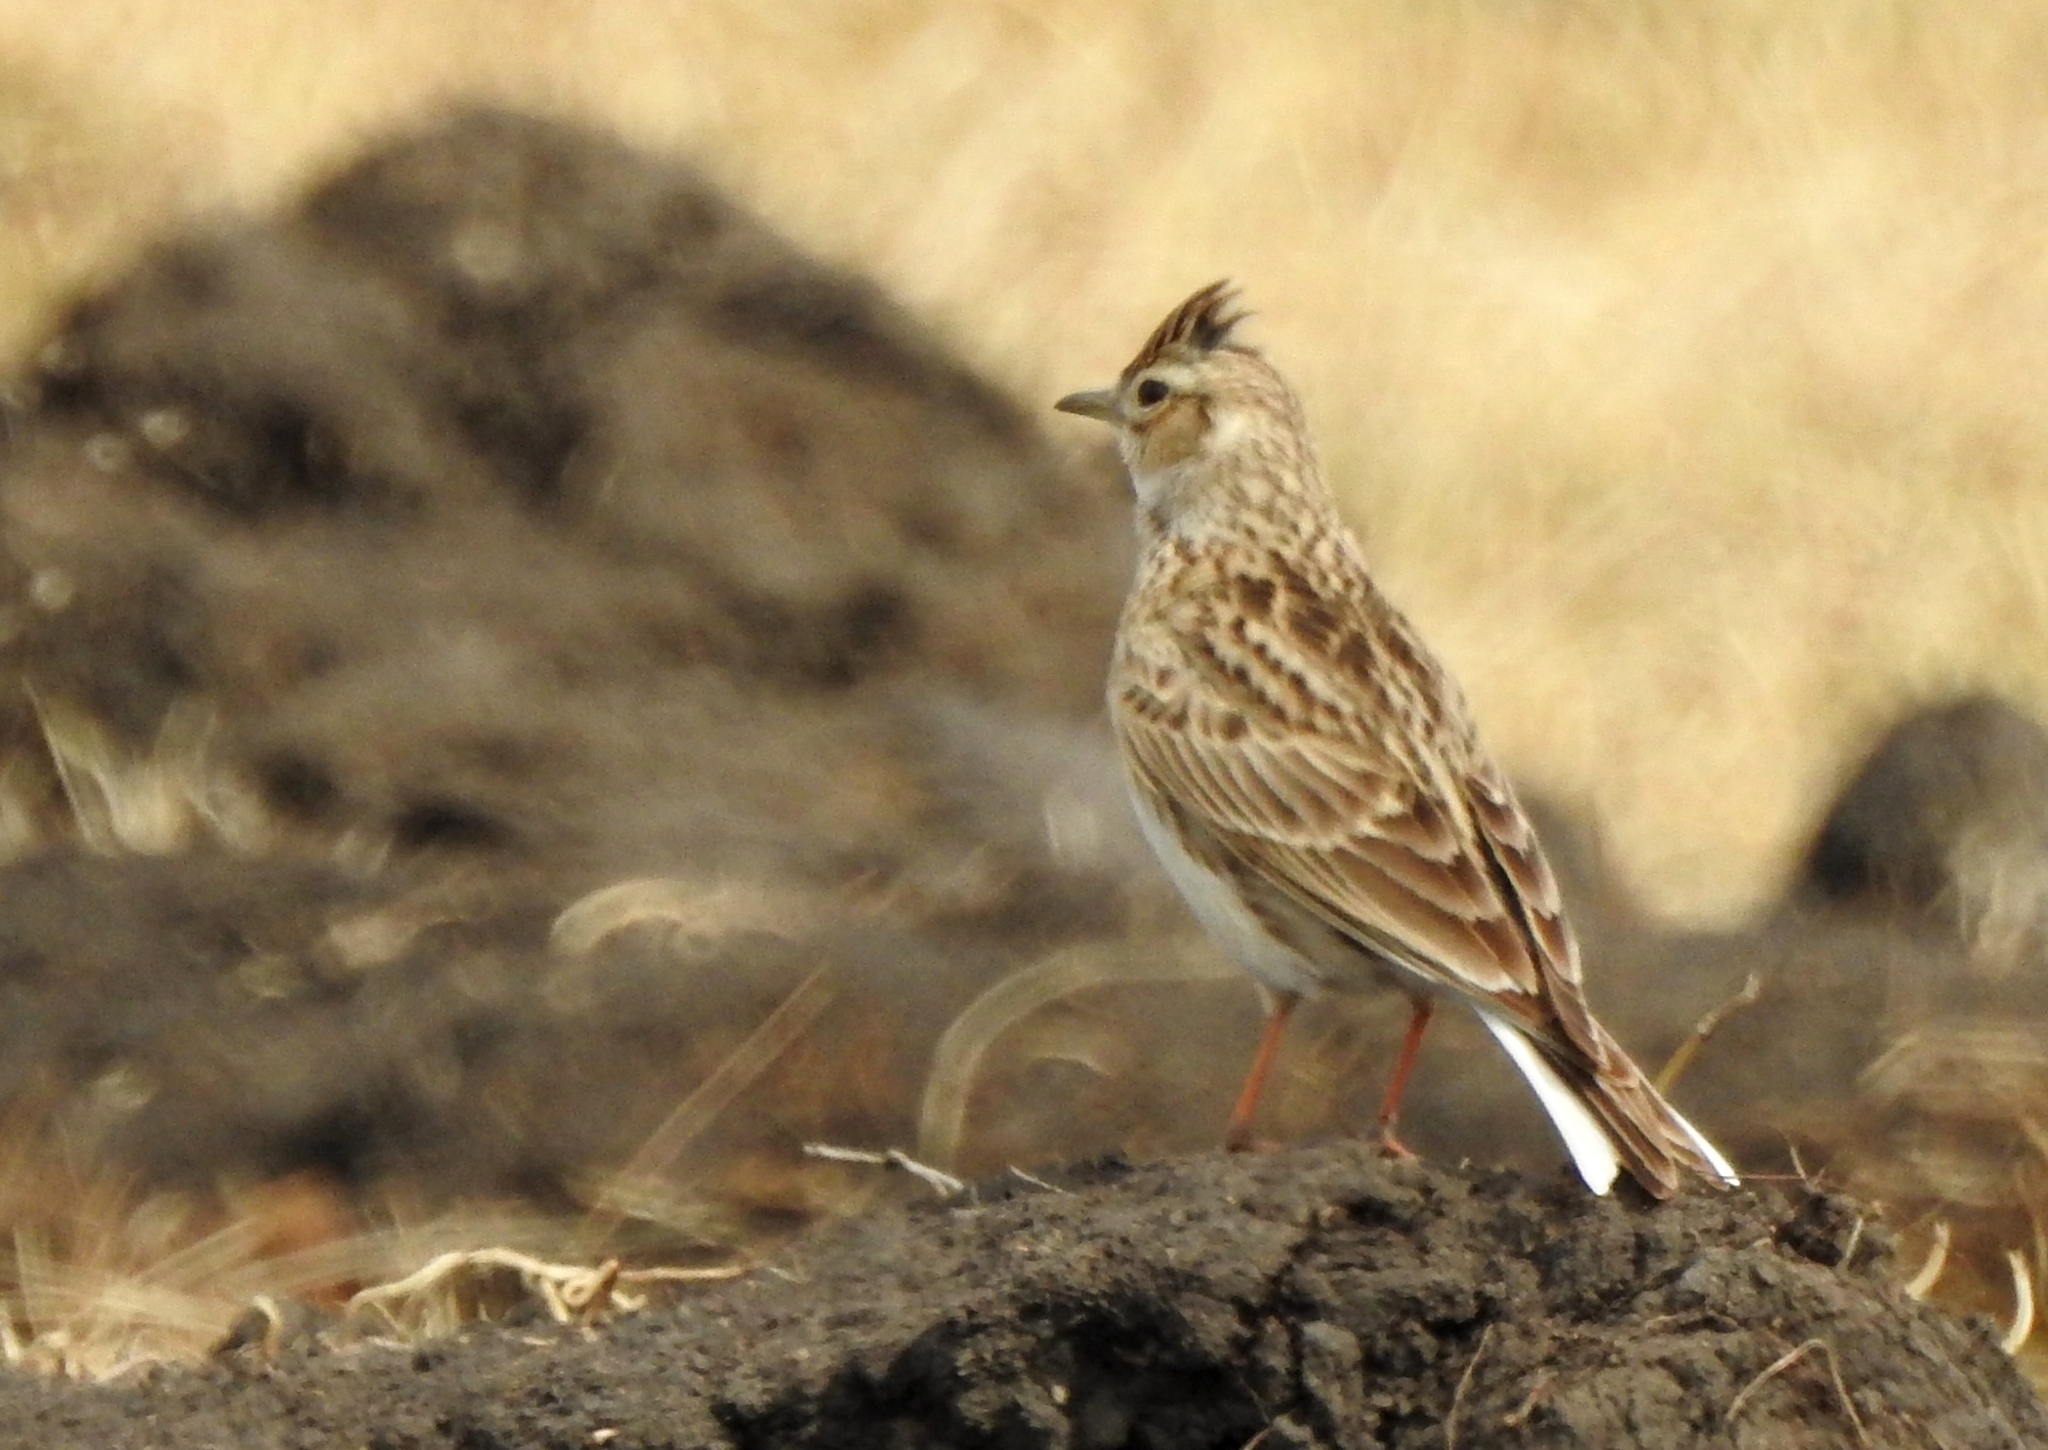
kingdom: Animalia
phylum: Chordata
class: Aves
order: Passeriformes
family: Alaudidae
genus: Alauda
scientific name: Alauda arvensis
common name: Eurasian skylark
